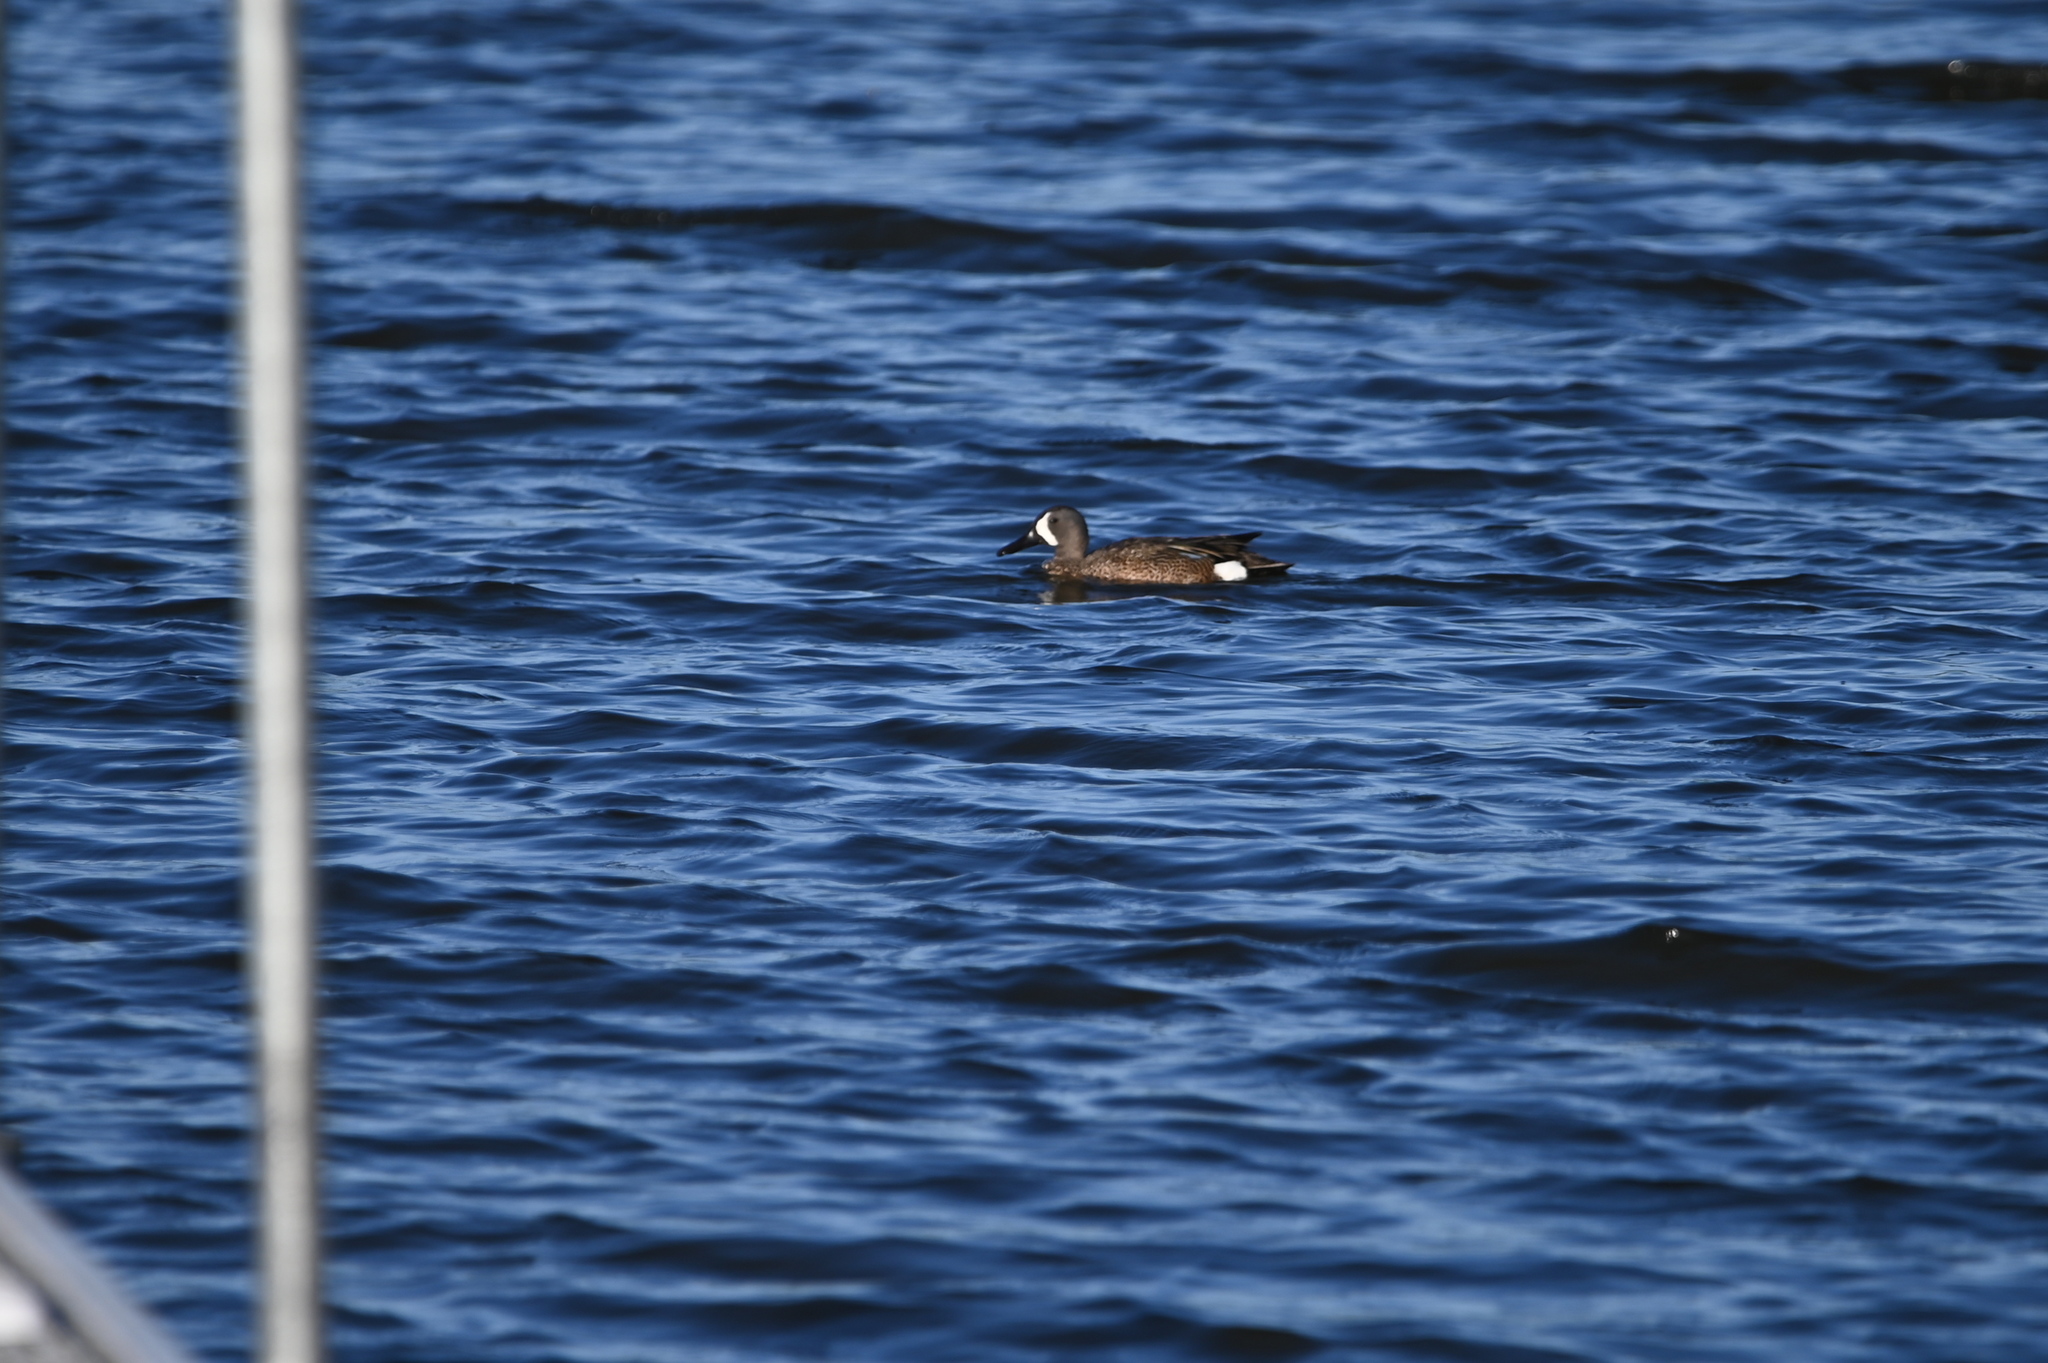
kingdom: Animalia
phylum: Chordata
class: Aves
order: Anseriformes
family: Anatidae
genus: Spatula
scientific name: Spatula discors
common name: Blue-winged teal
